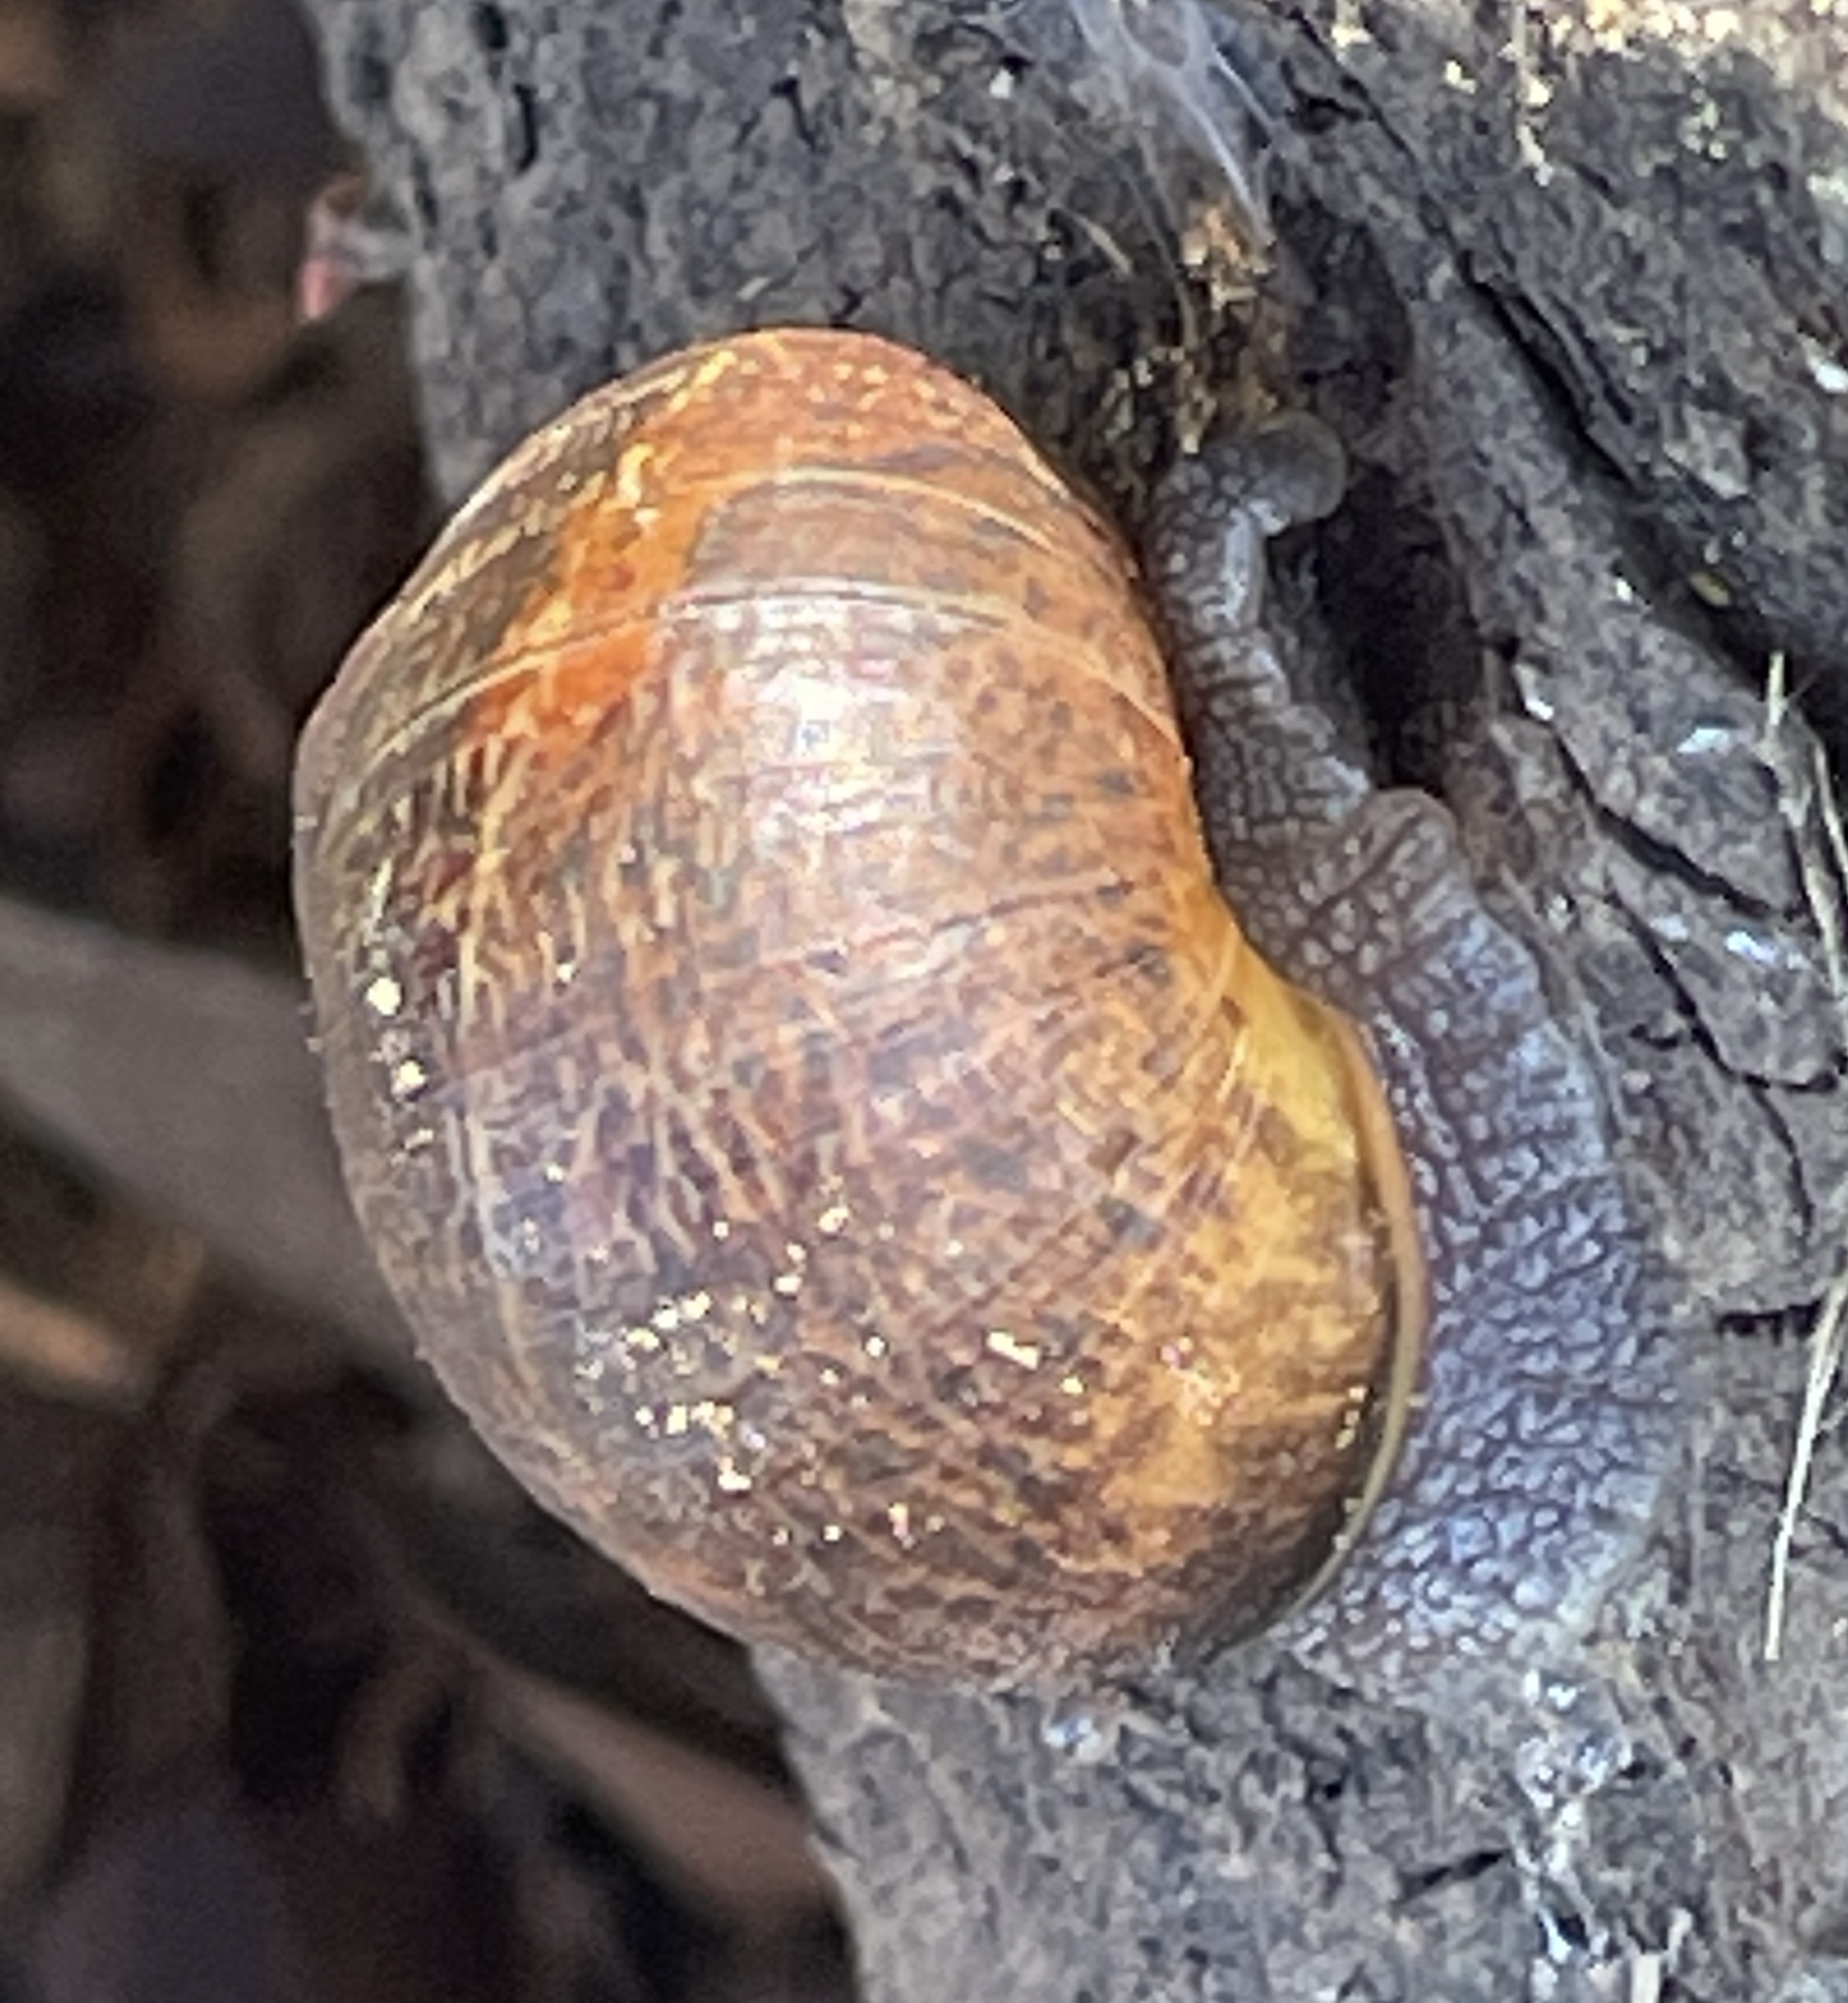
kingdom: Animalia
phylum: Mollusca
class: Gastropoda
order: Stylommatophora
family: Helicidae
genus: Cornu
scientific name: Cornu aspersum
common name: Brown garden snail
